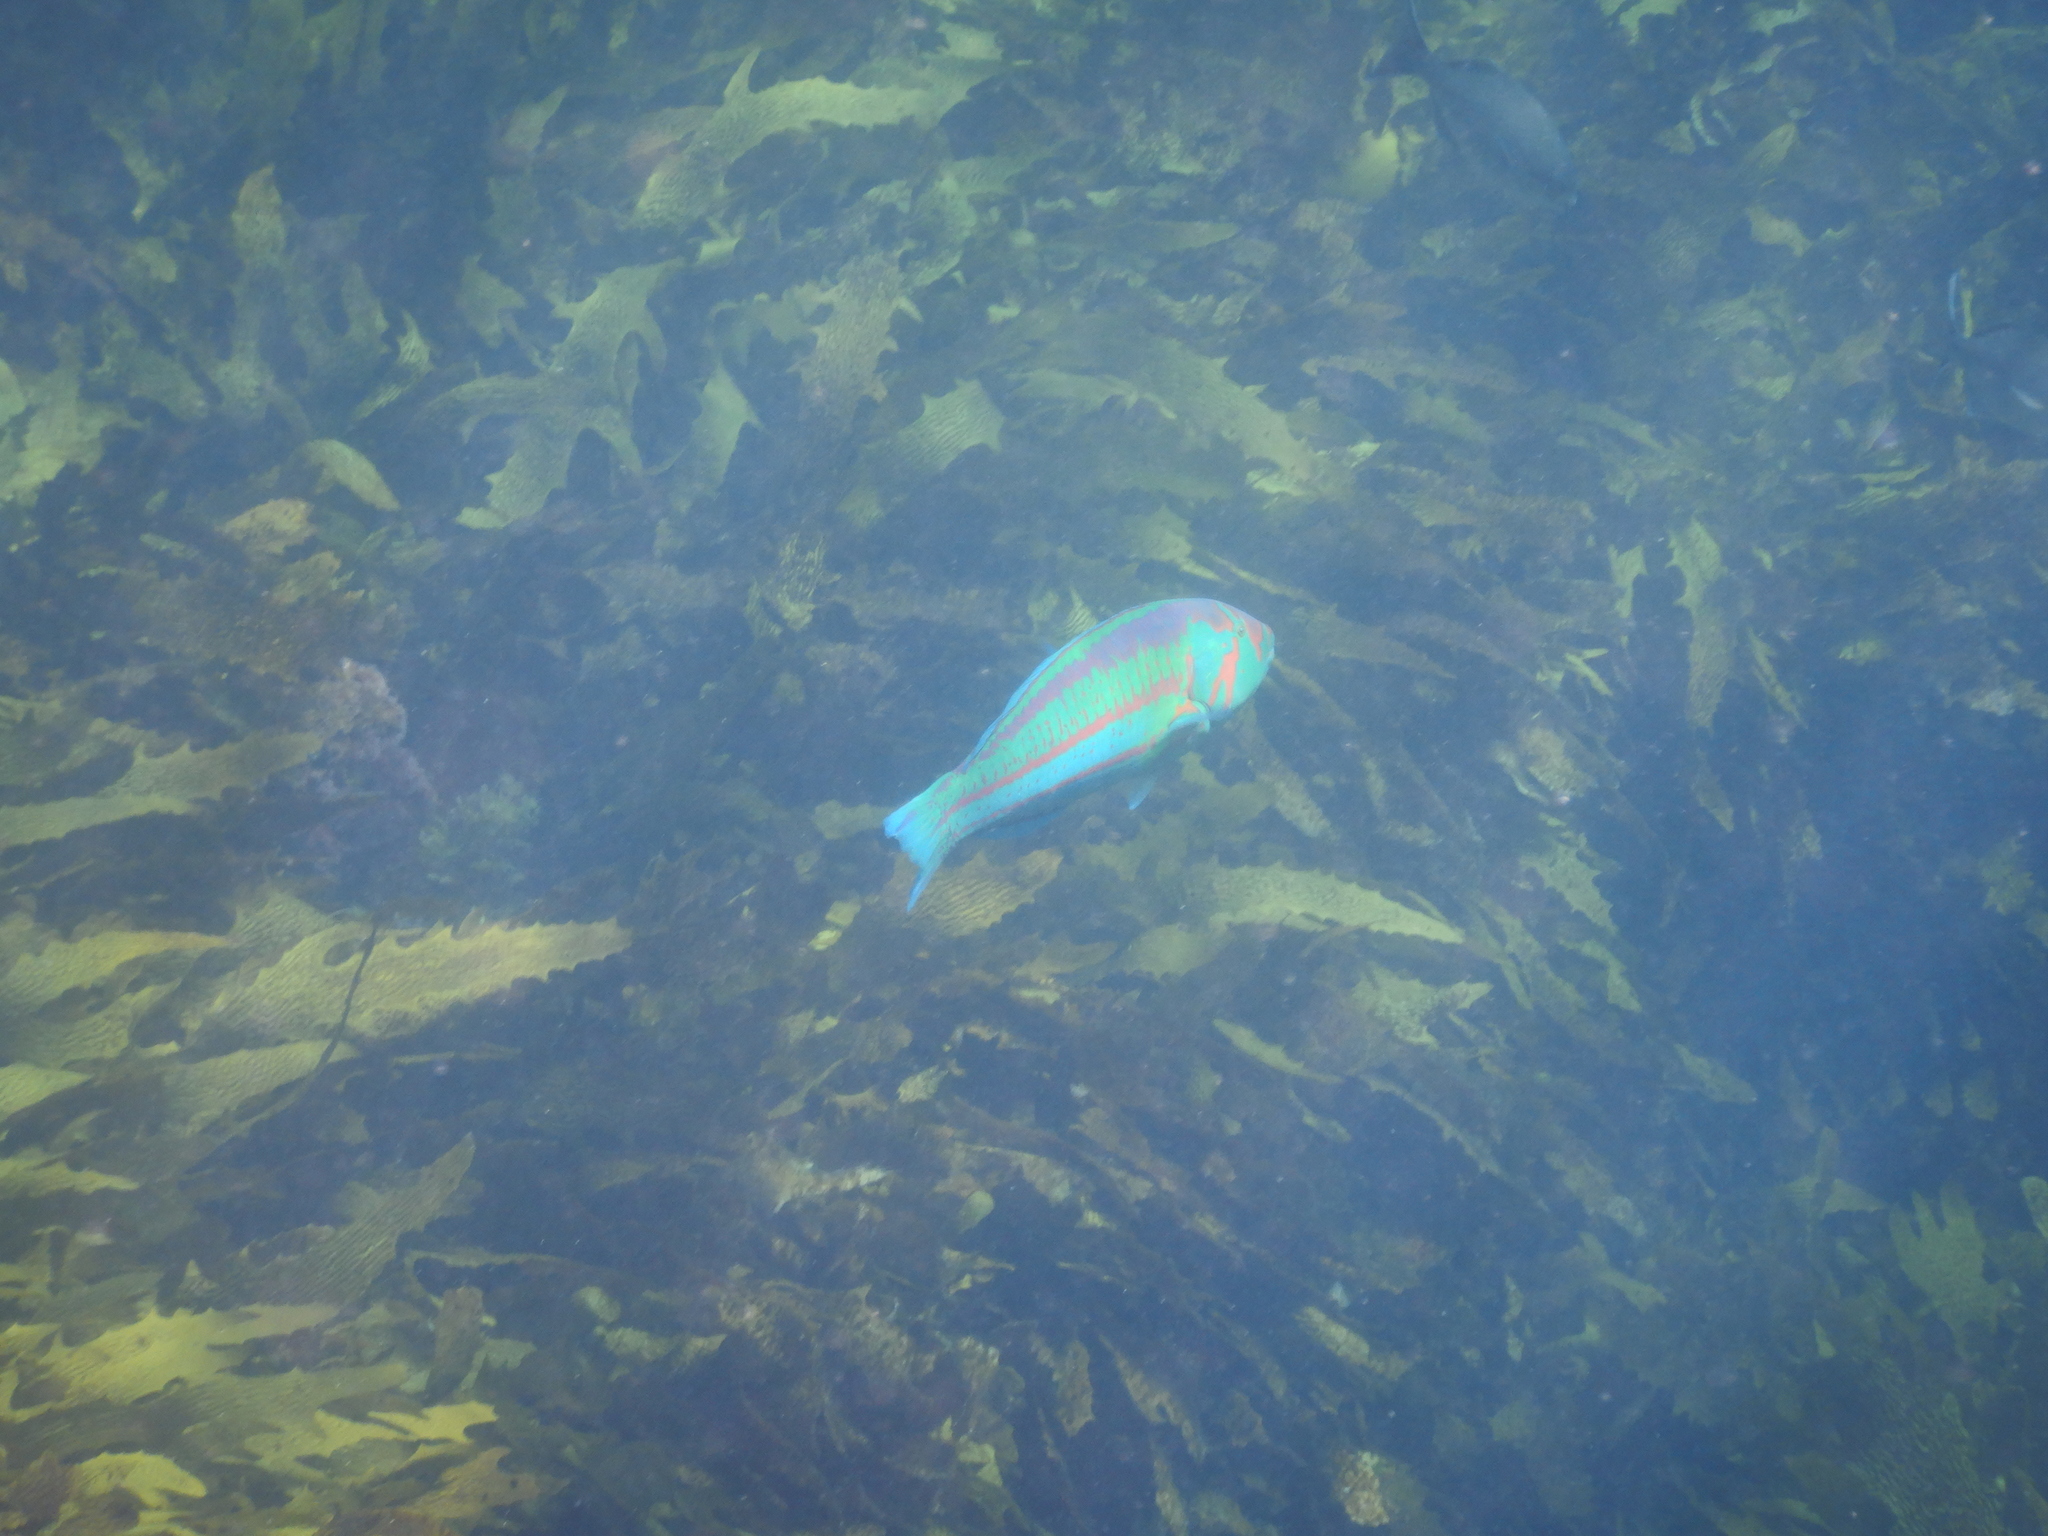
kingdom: Animalia
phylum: Chordata
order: Perciformes
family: Labridae
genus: Thalassoma
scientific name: Thalassoma purpureum
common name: Parrotfish
